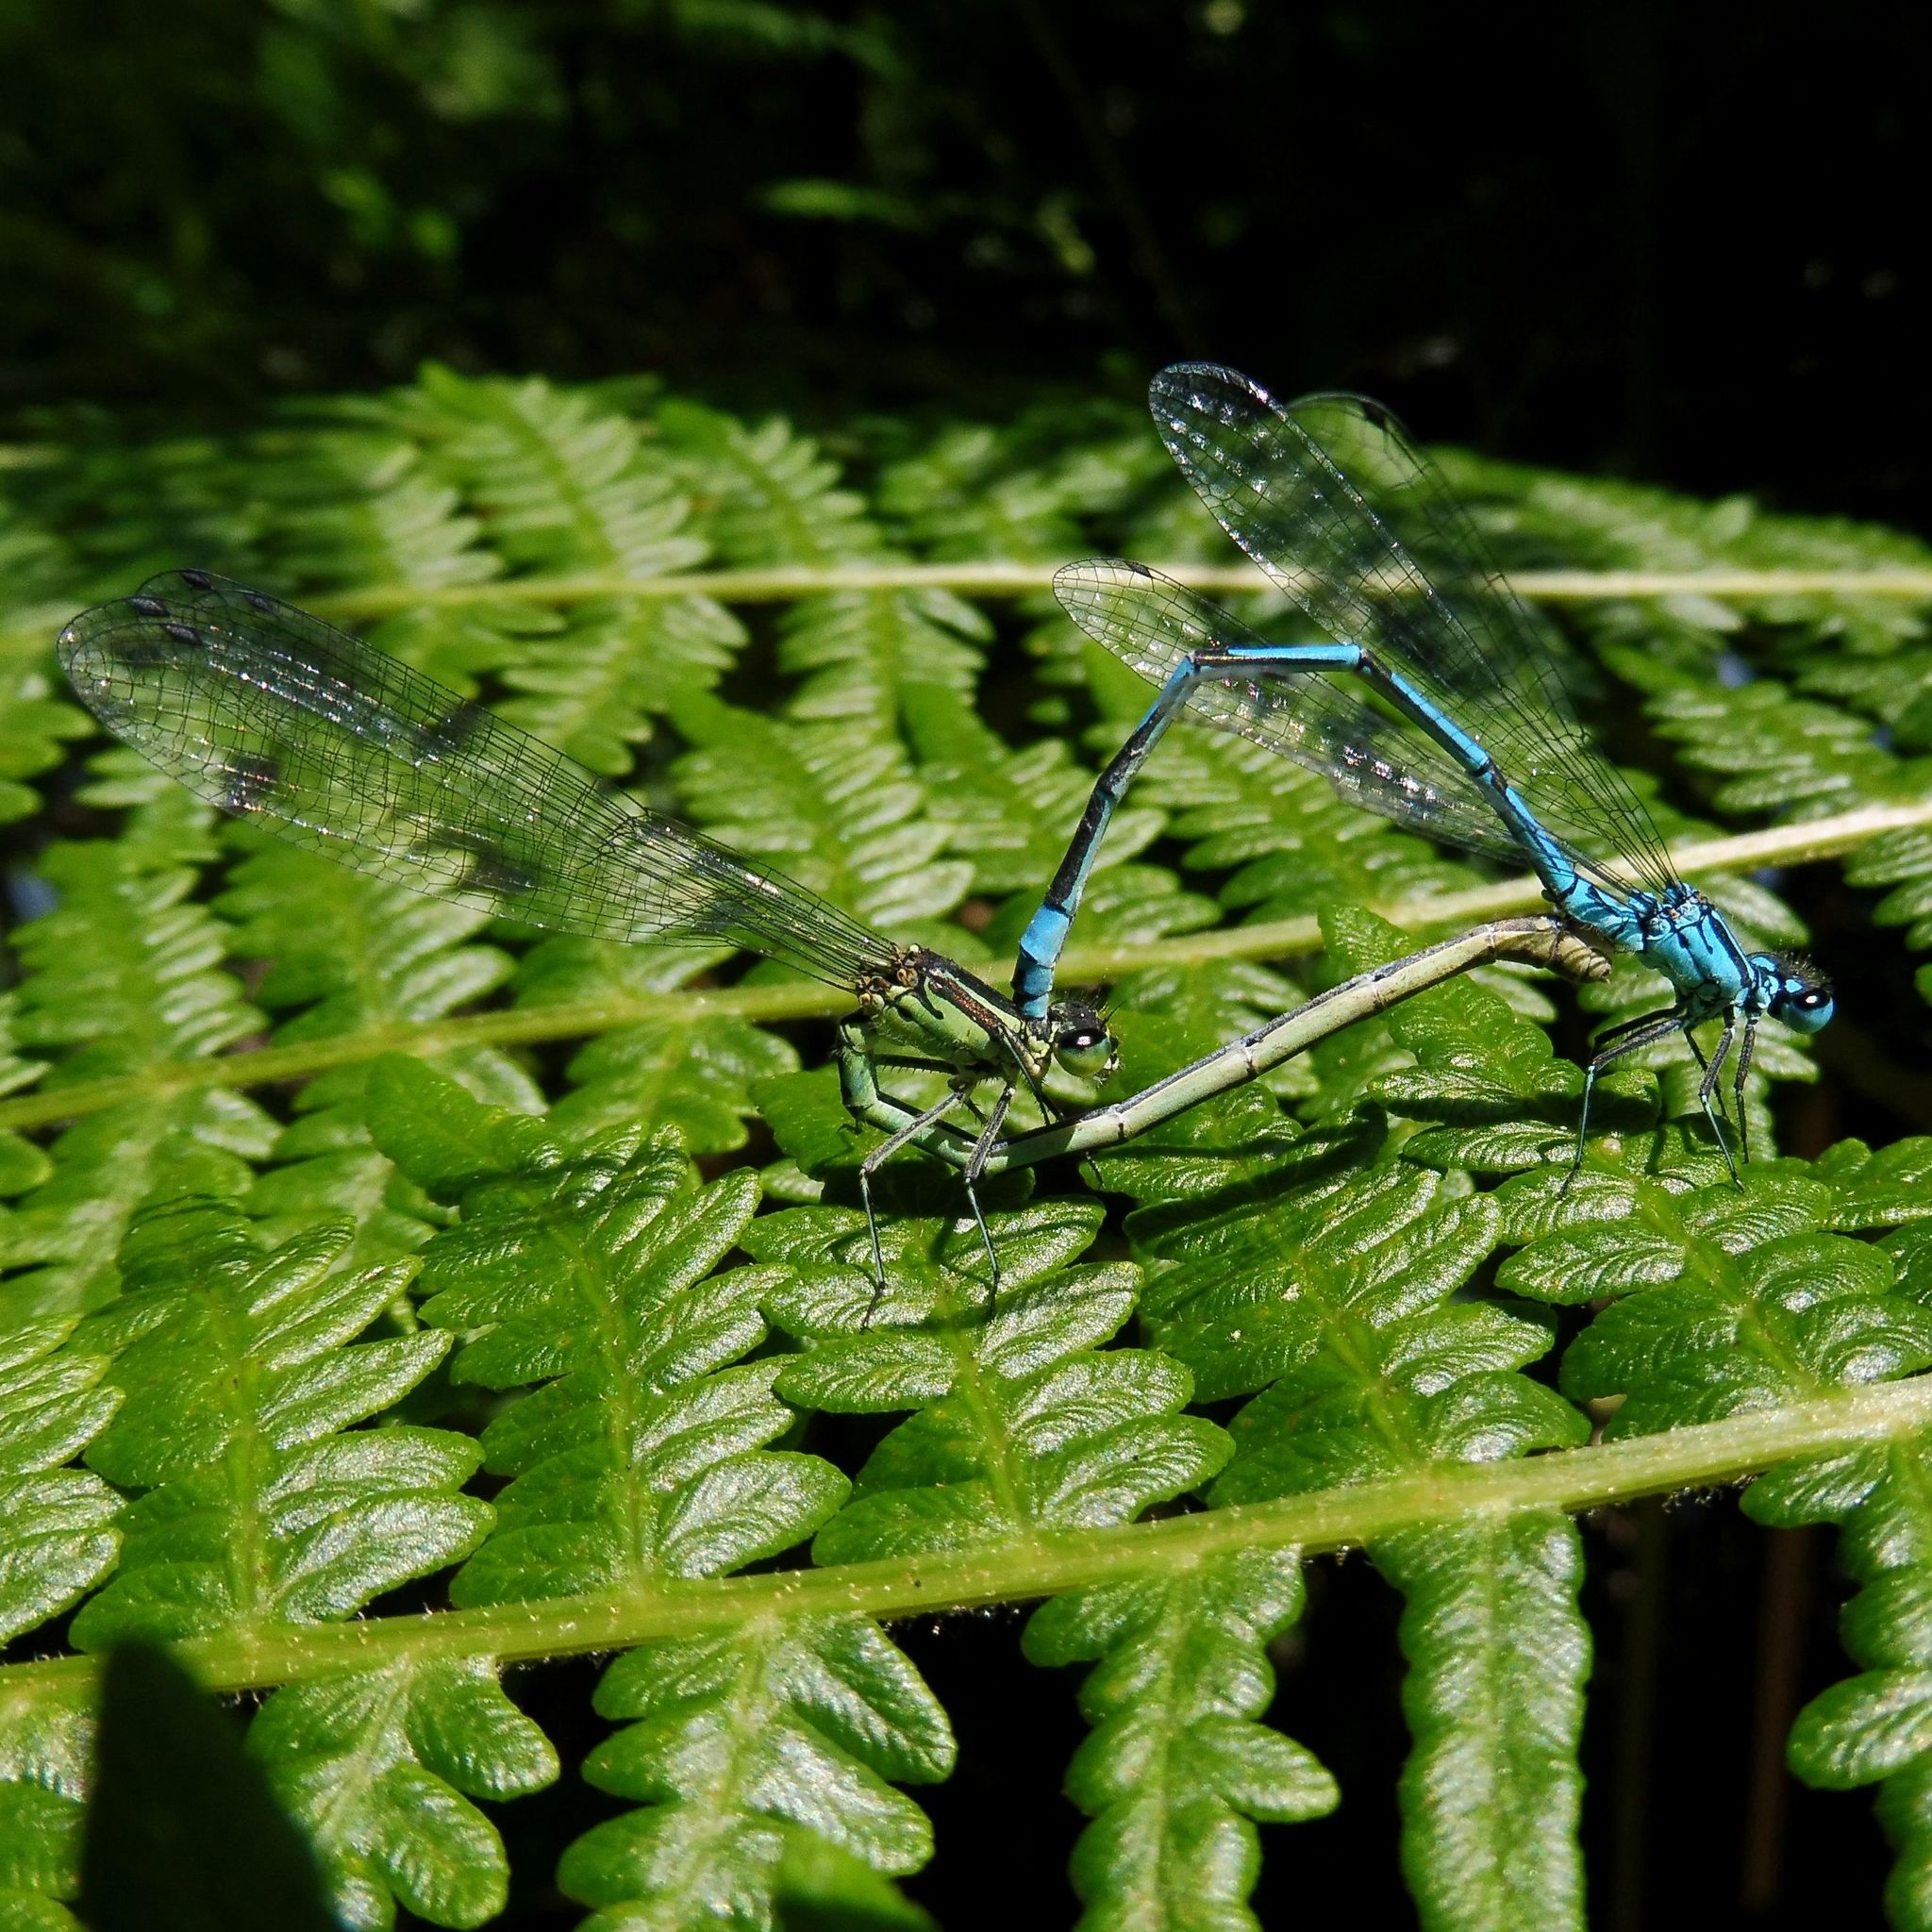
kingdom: Animalia
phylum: Arthropoda
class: Insecta
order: Odonata
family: Coenagrionidae
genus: Coenagrion
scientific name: Coenagrion puella
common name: Azure damselfly
